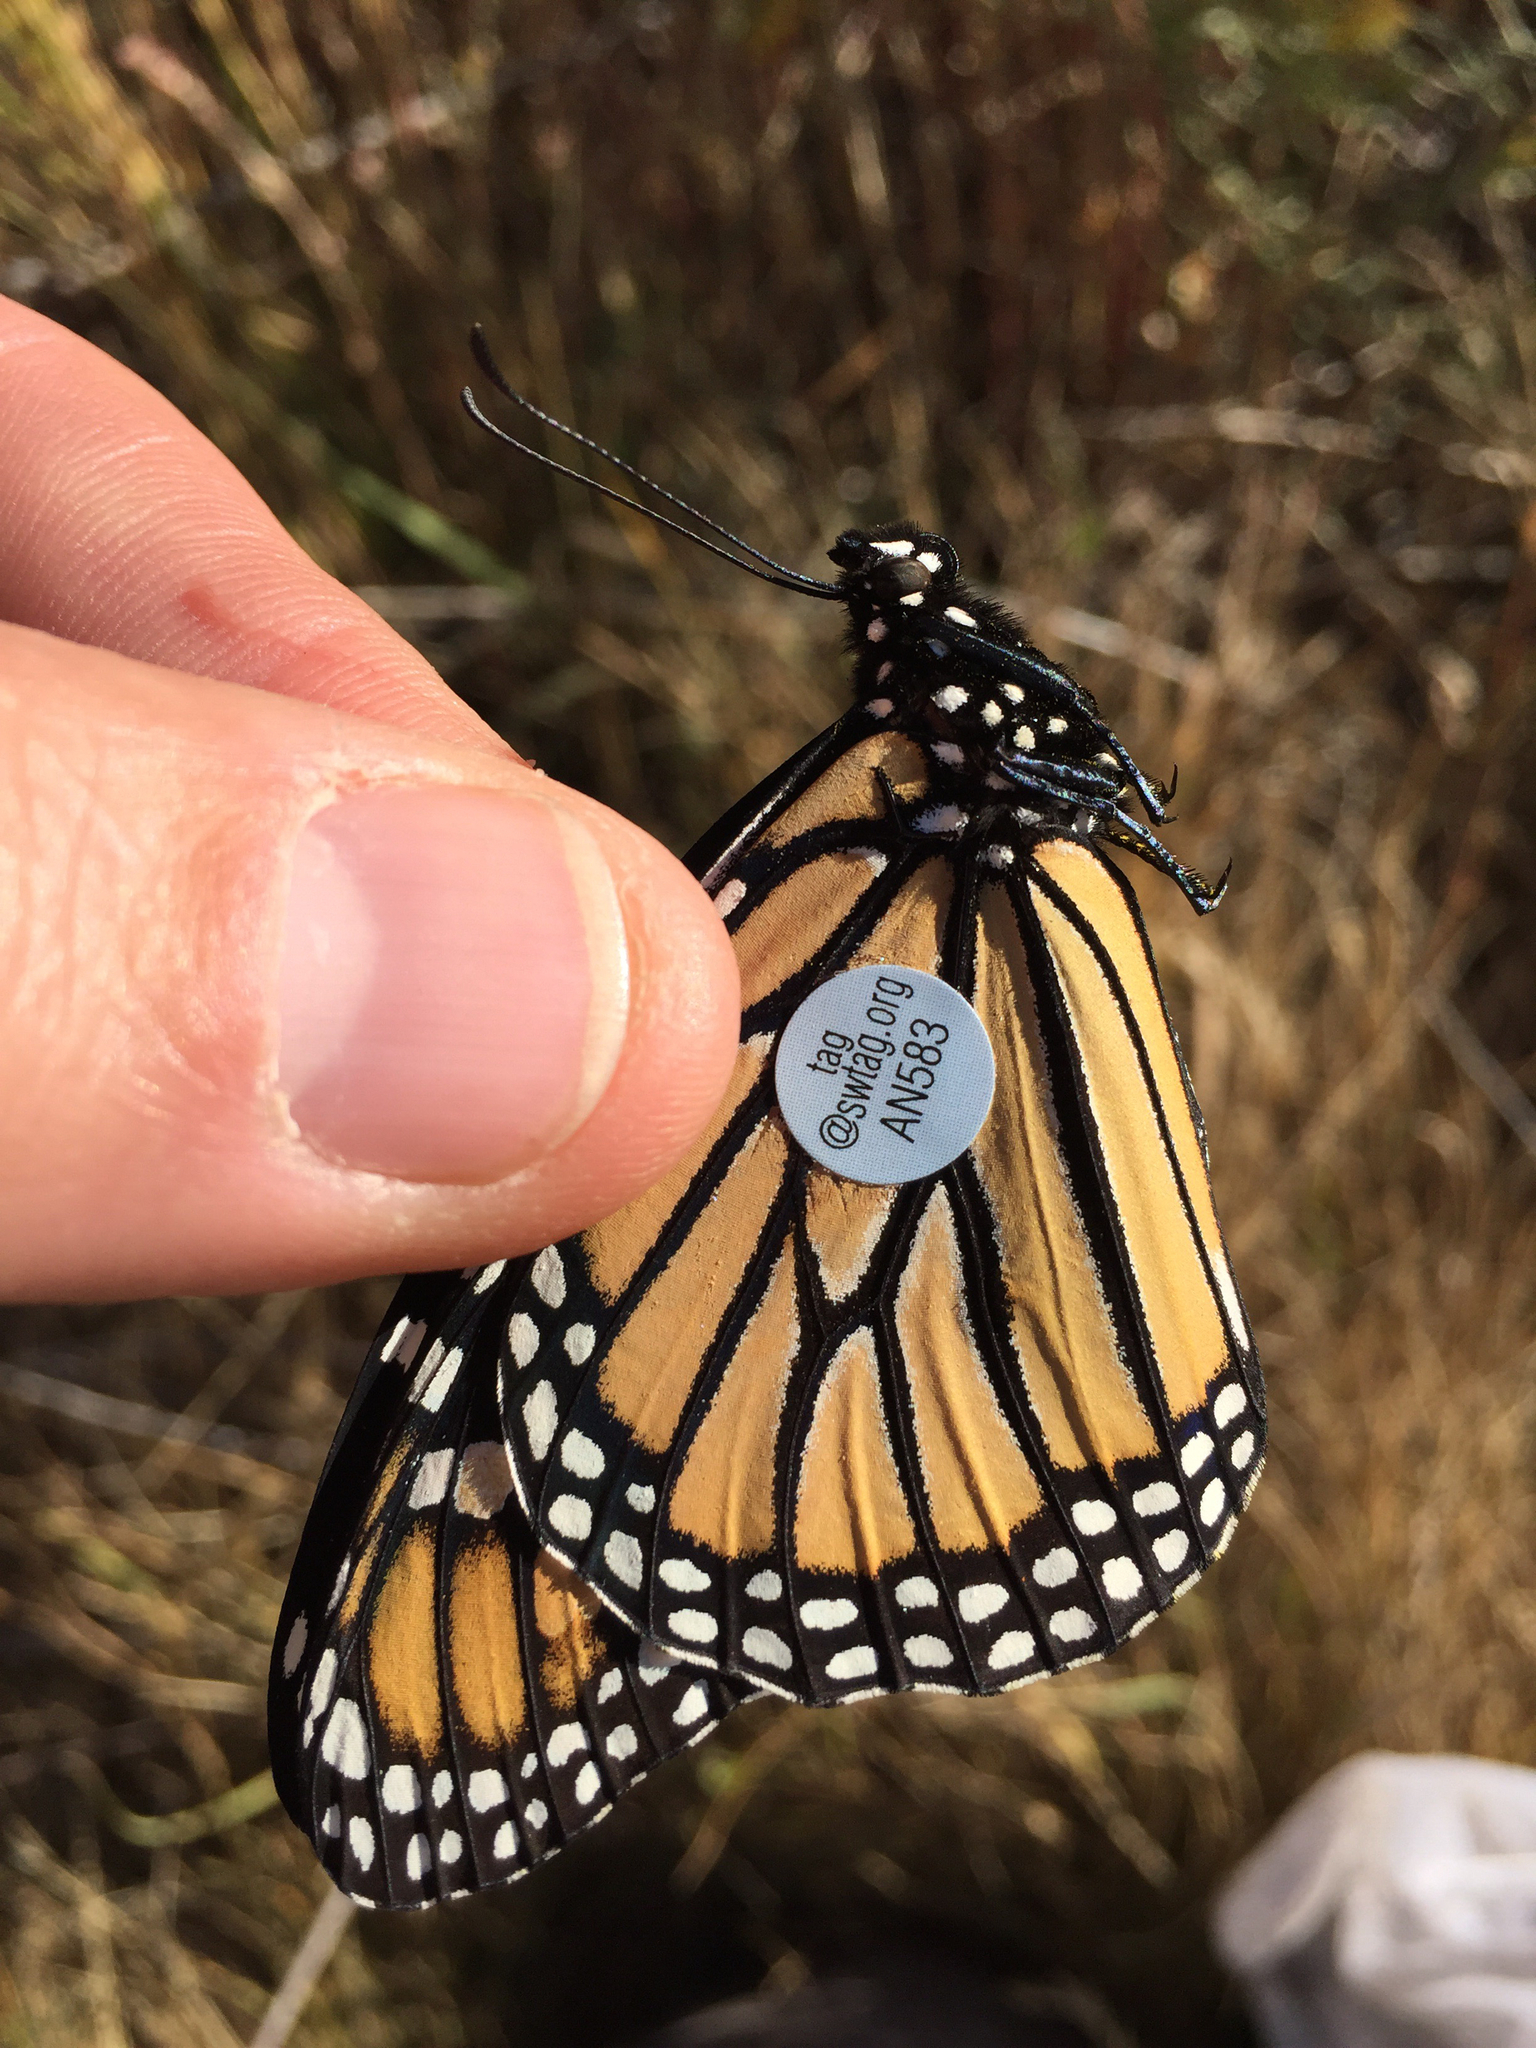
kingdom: Animalia
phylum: Arthropoda
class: Insecta
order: Lepidoptera
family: Nymphalidae
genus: Danaus
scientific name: Danaus plexippus
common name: Monarch
